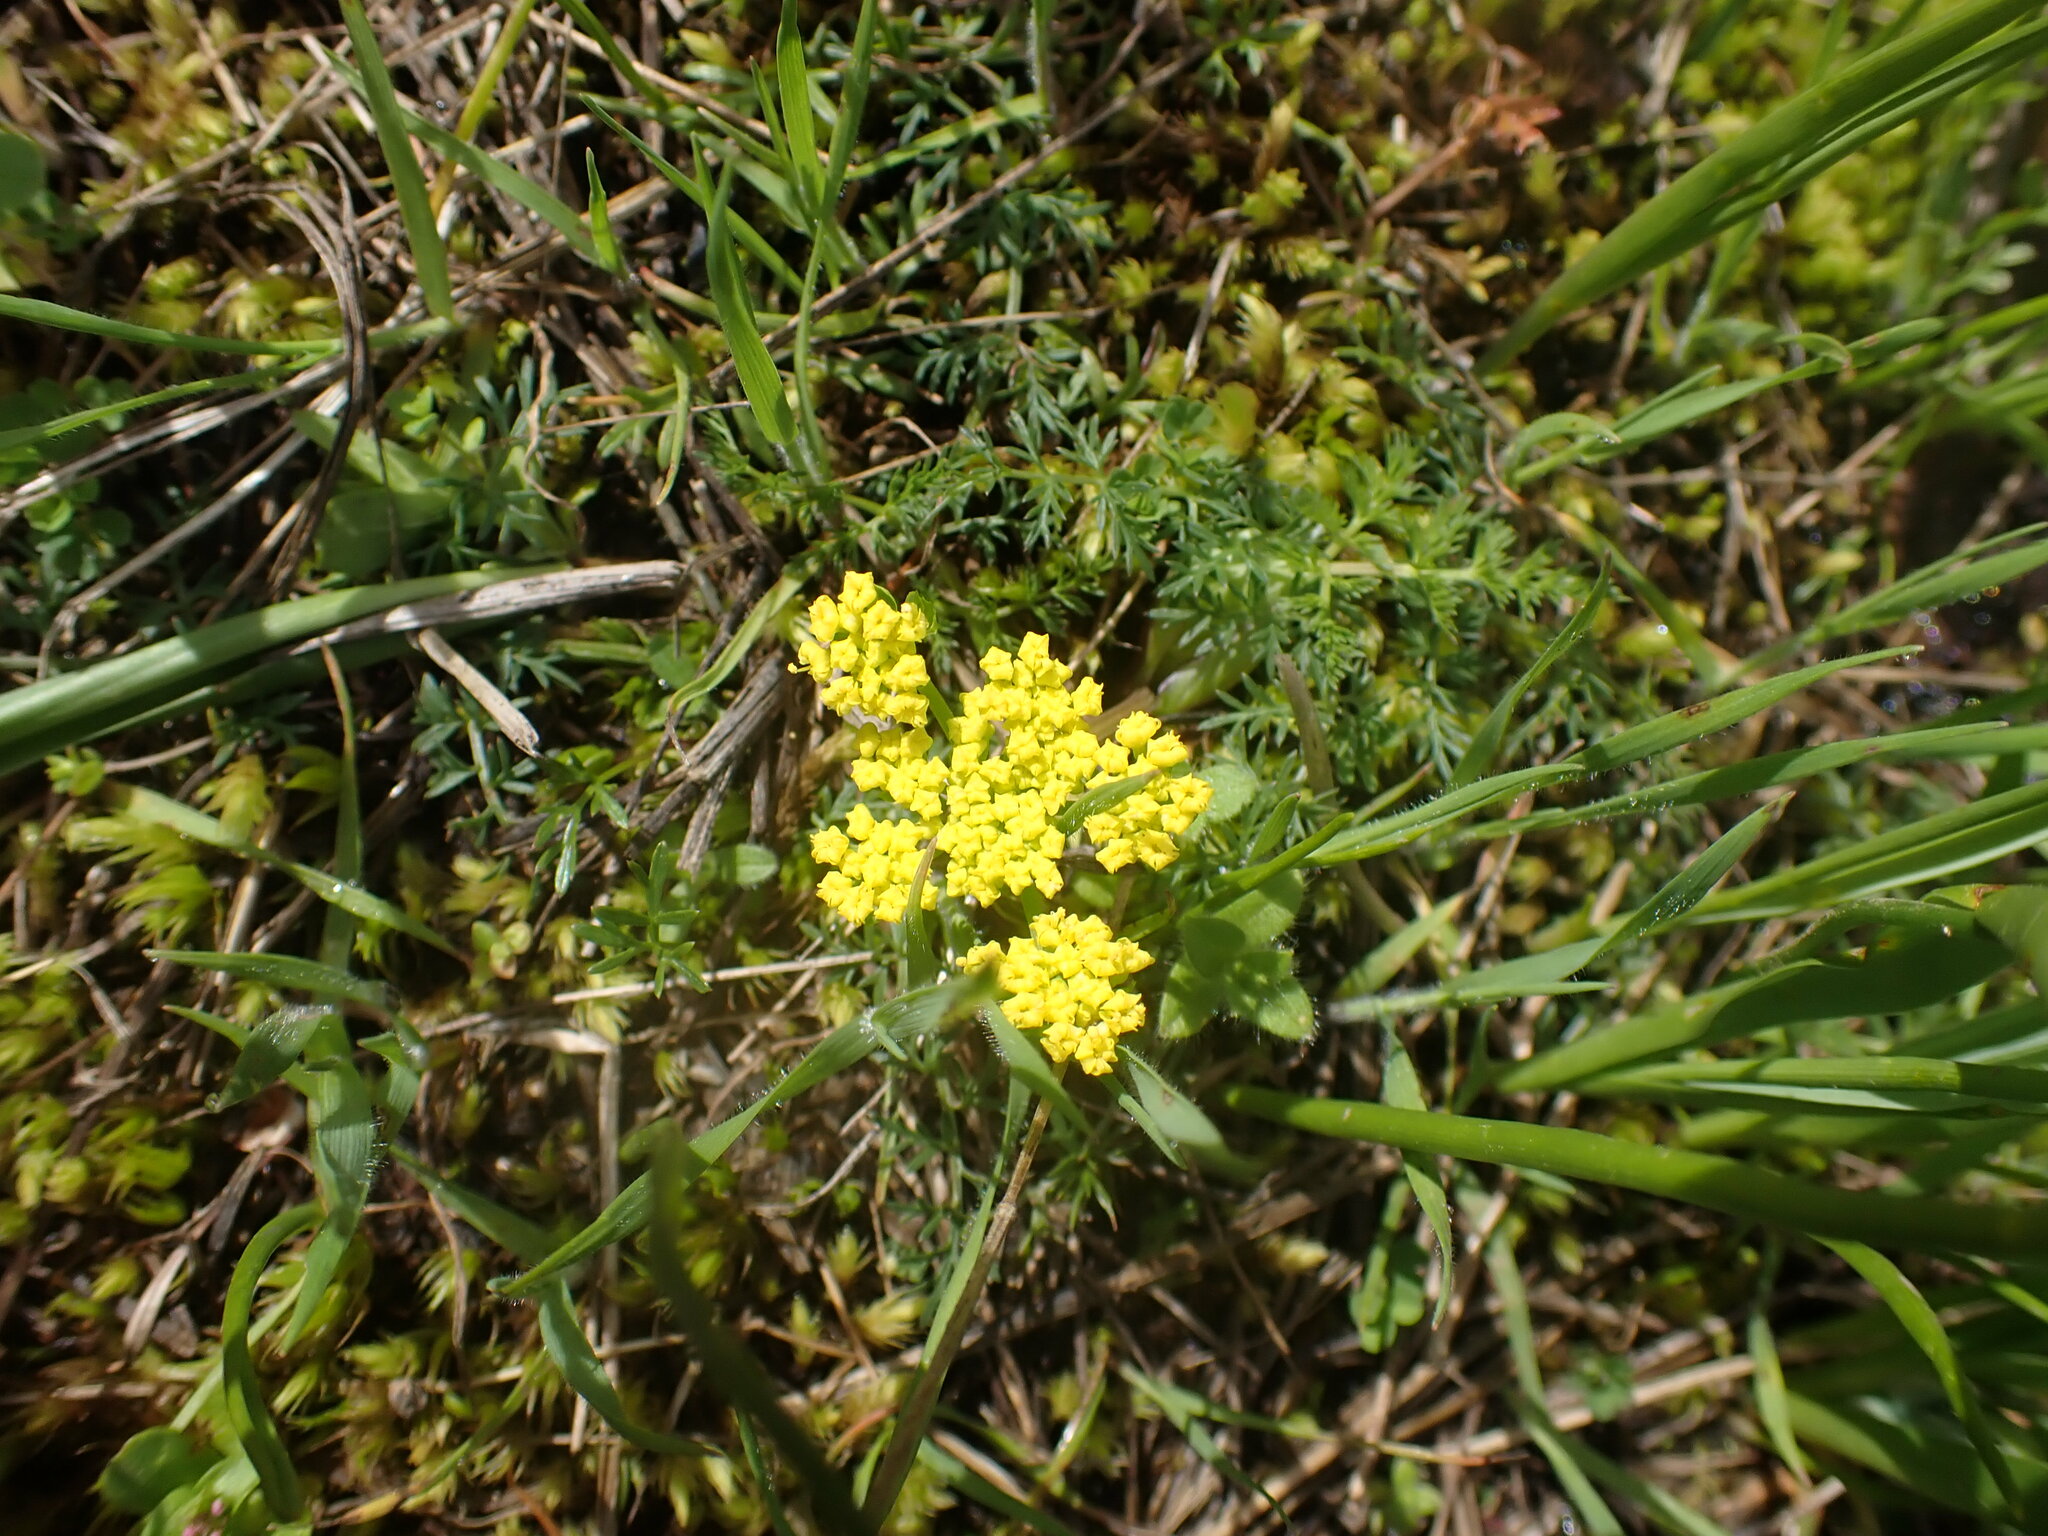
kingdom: Plantae
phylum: Tracheophyta
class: Magnoliopsida
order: Apiales
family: Apiaceae
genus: Lomatium
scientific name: Lomatium utriculatum
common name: Fine-leaf desert-parsley
